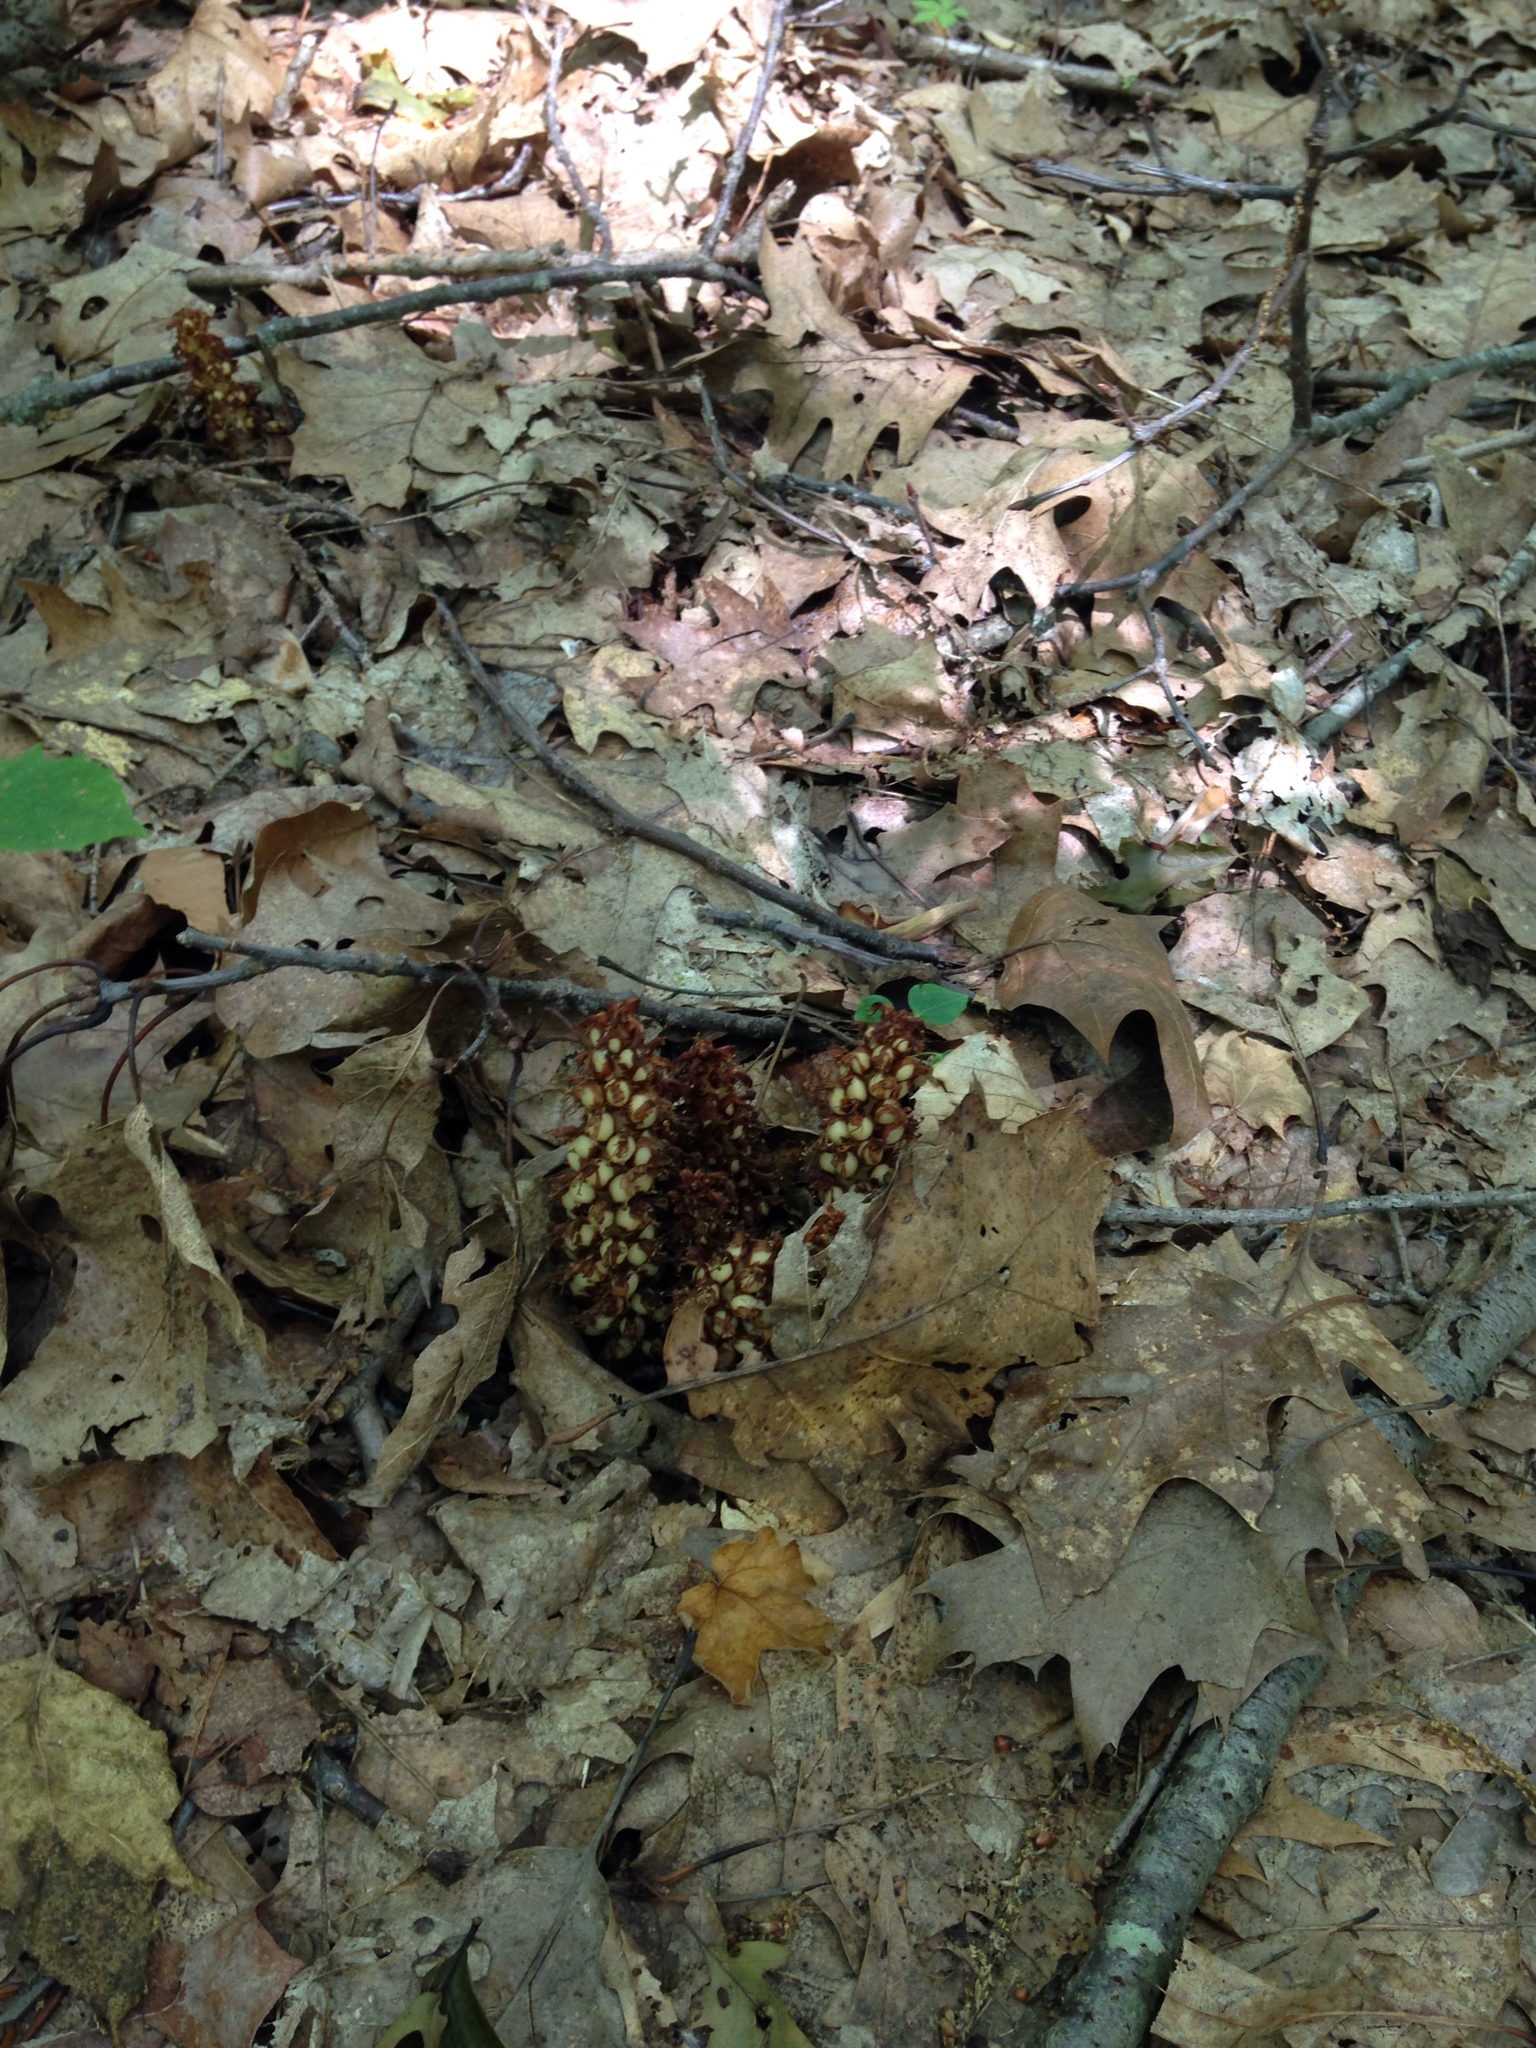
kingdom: Plantae
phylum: Tracheophyta
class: Magnoliopsida
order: Lamiales
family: Orobanchaceae
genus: Conopholis
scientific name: Conopholis americana
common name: American cancer-root
